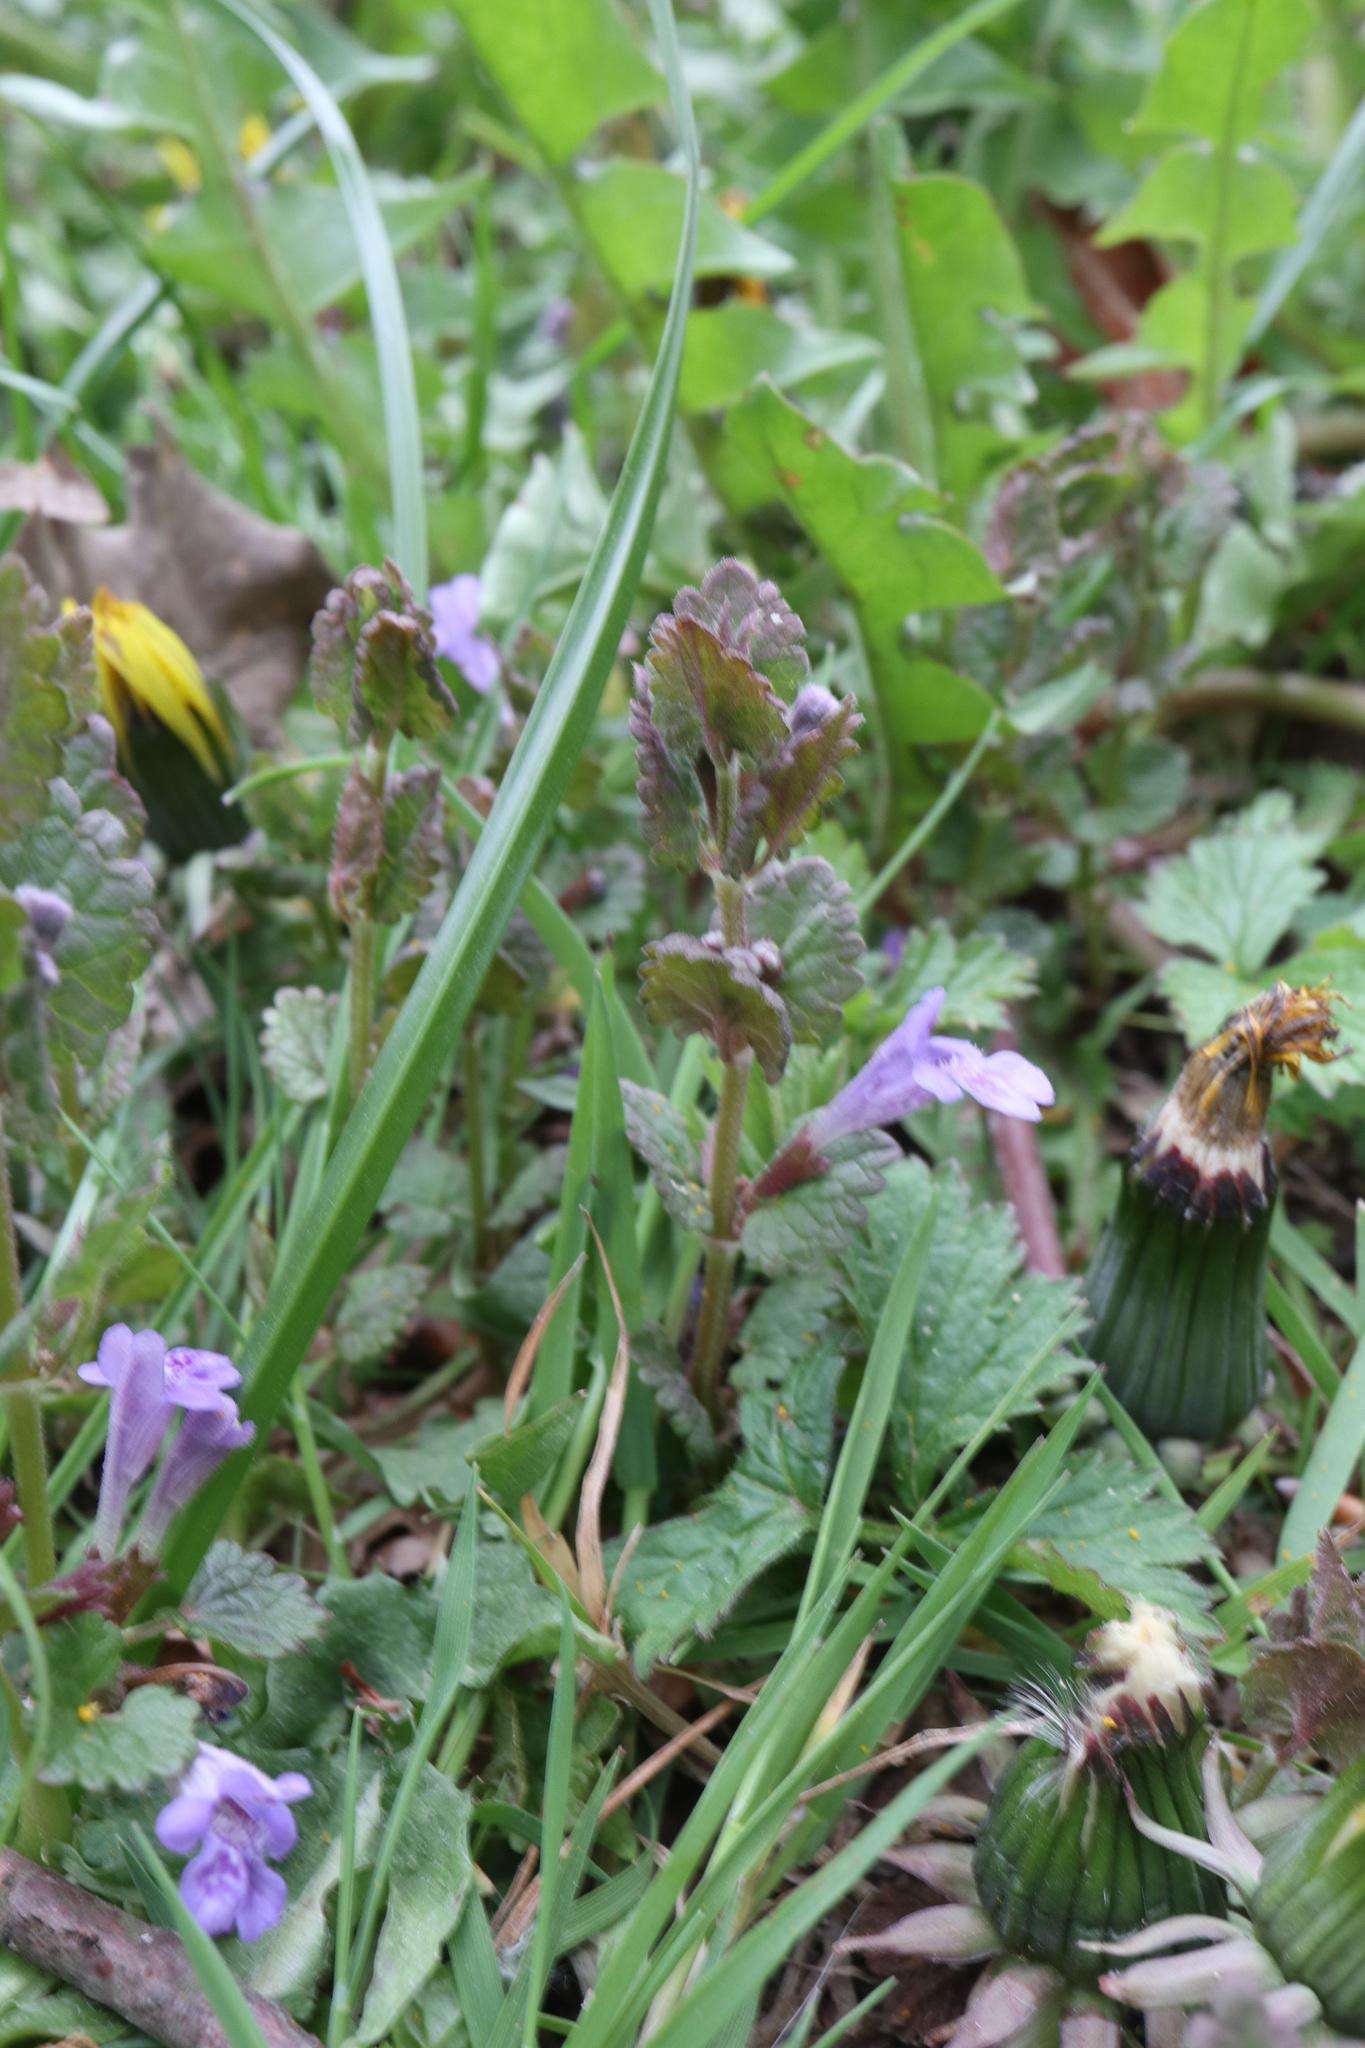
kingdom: Plantae
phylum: Tracheophyta
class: Magnoliopsida
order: Lamiales
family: Lamiaceae
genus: Glechoma
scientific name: Glechoma hederacea
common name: Ground ivy
